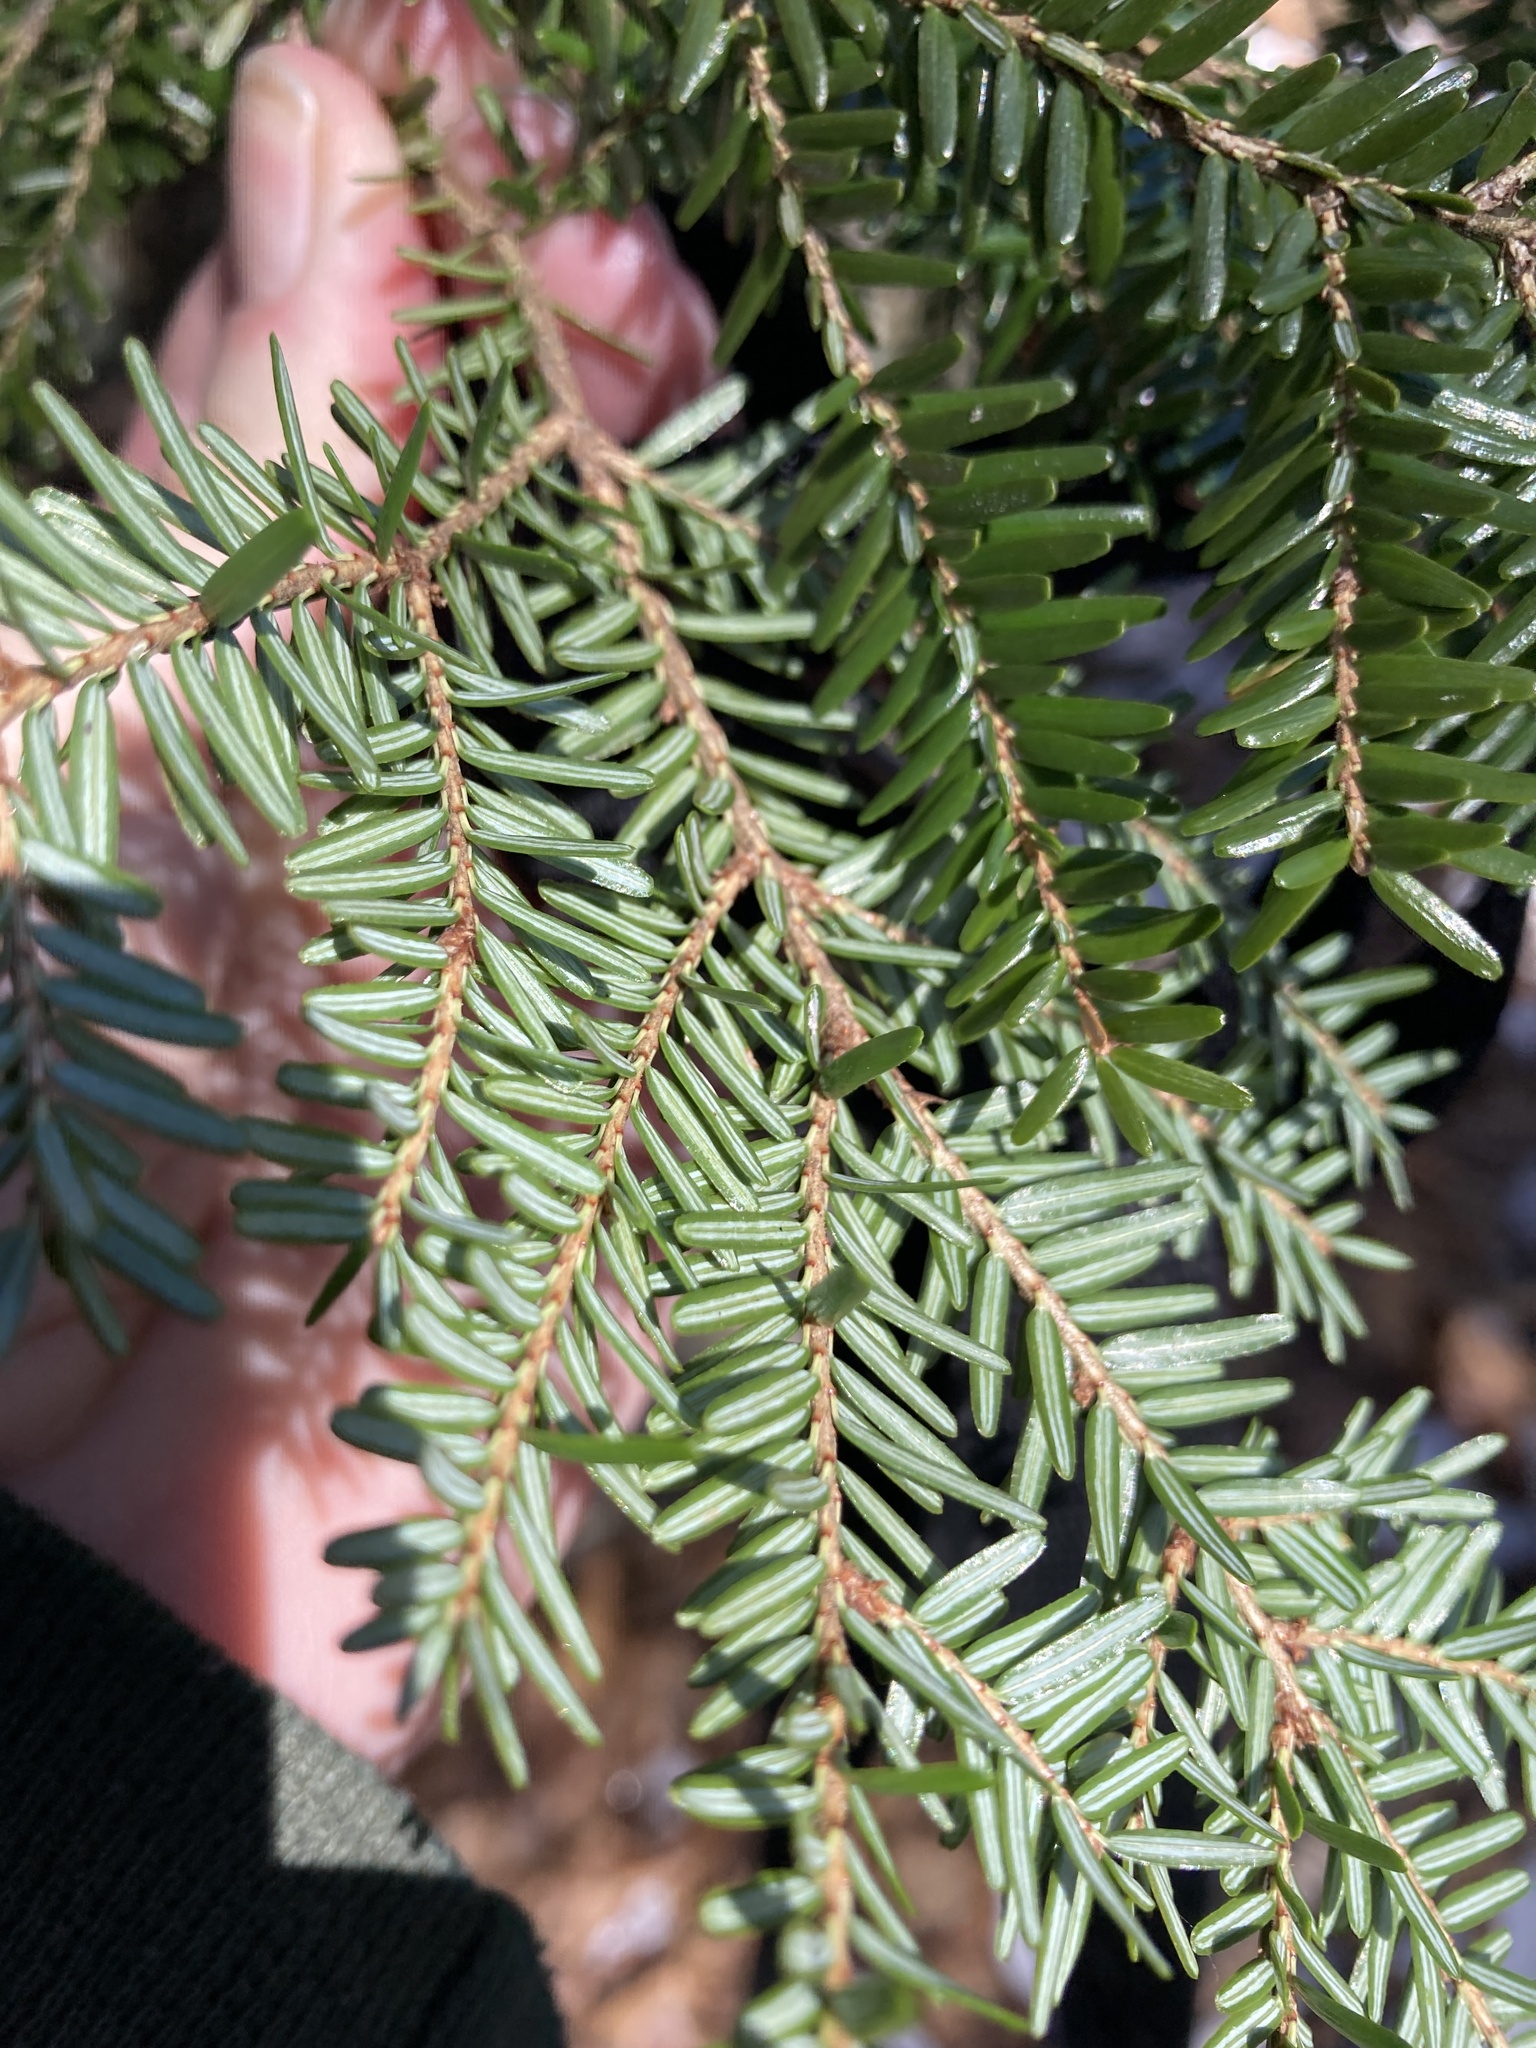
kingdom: Plantae
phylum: Tracheophyta
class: Pinopsida
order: Pinales
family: Pinaceae
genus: Tsuga
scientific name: Tsuga canadensis
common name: Eastern hemlock
